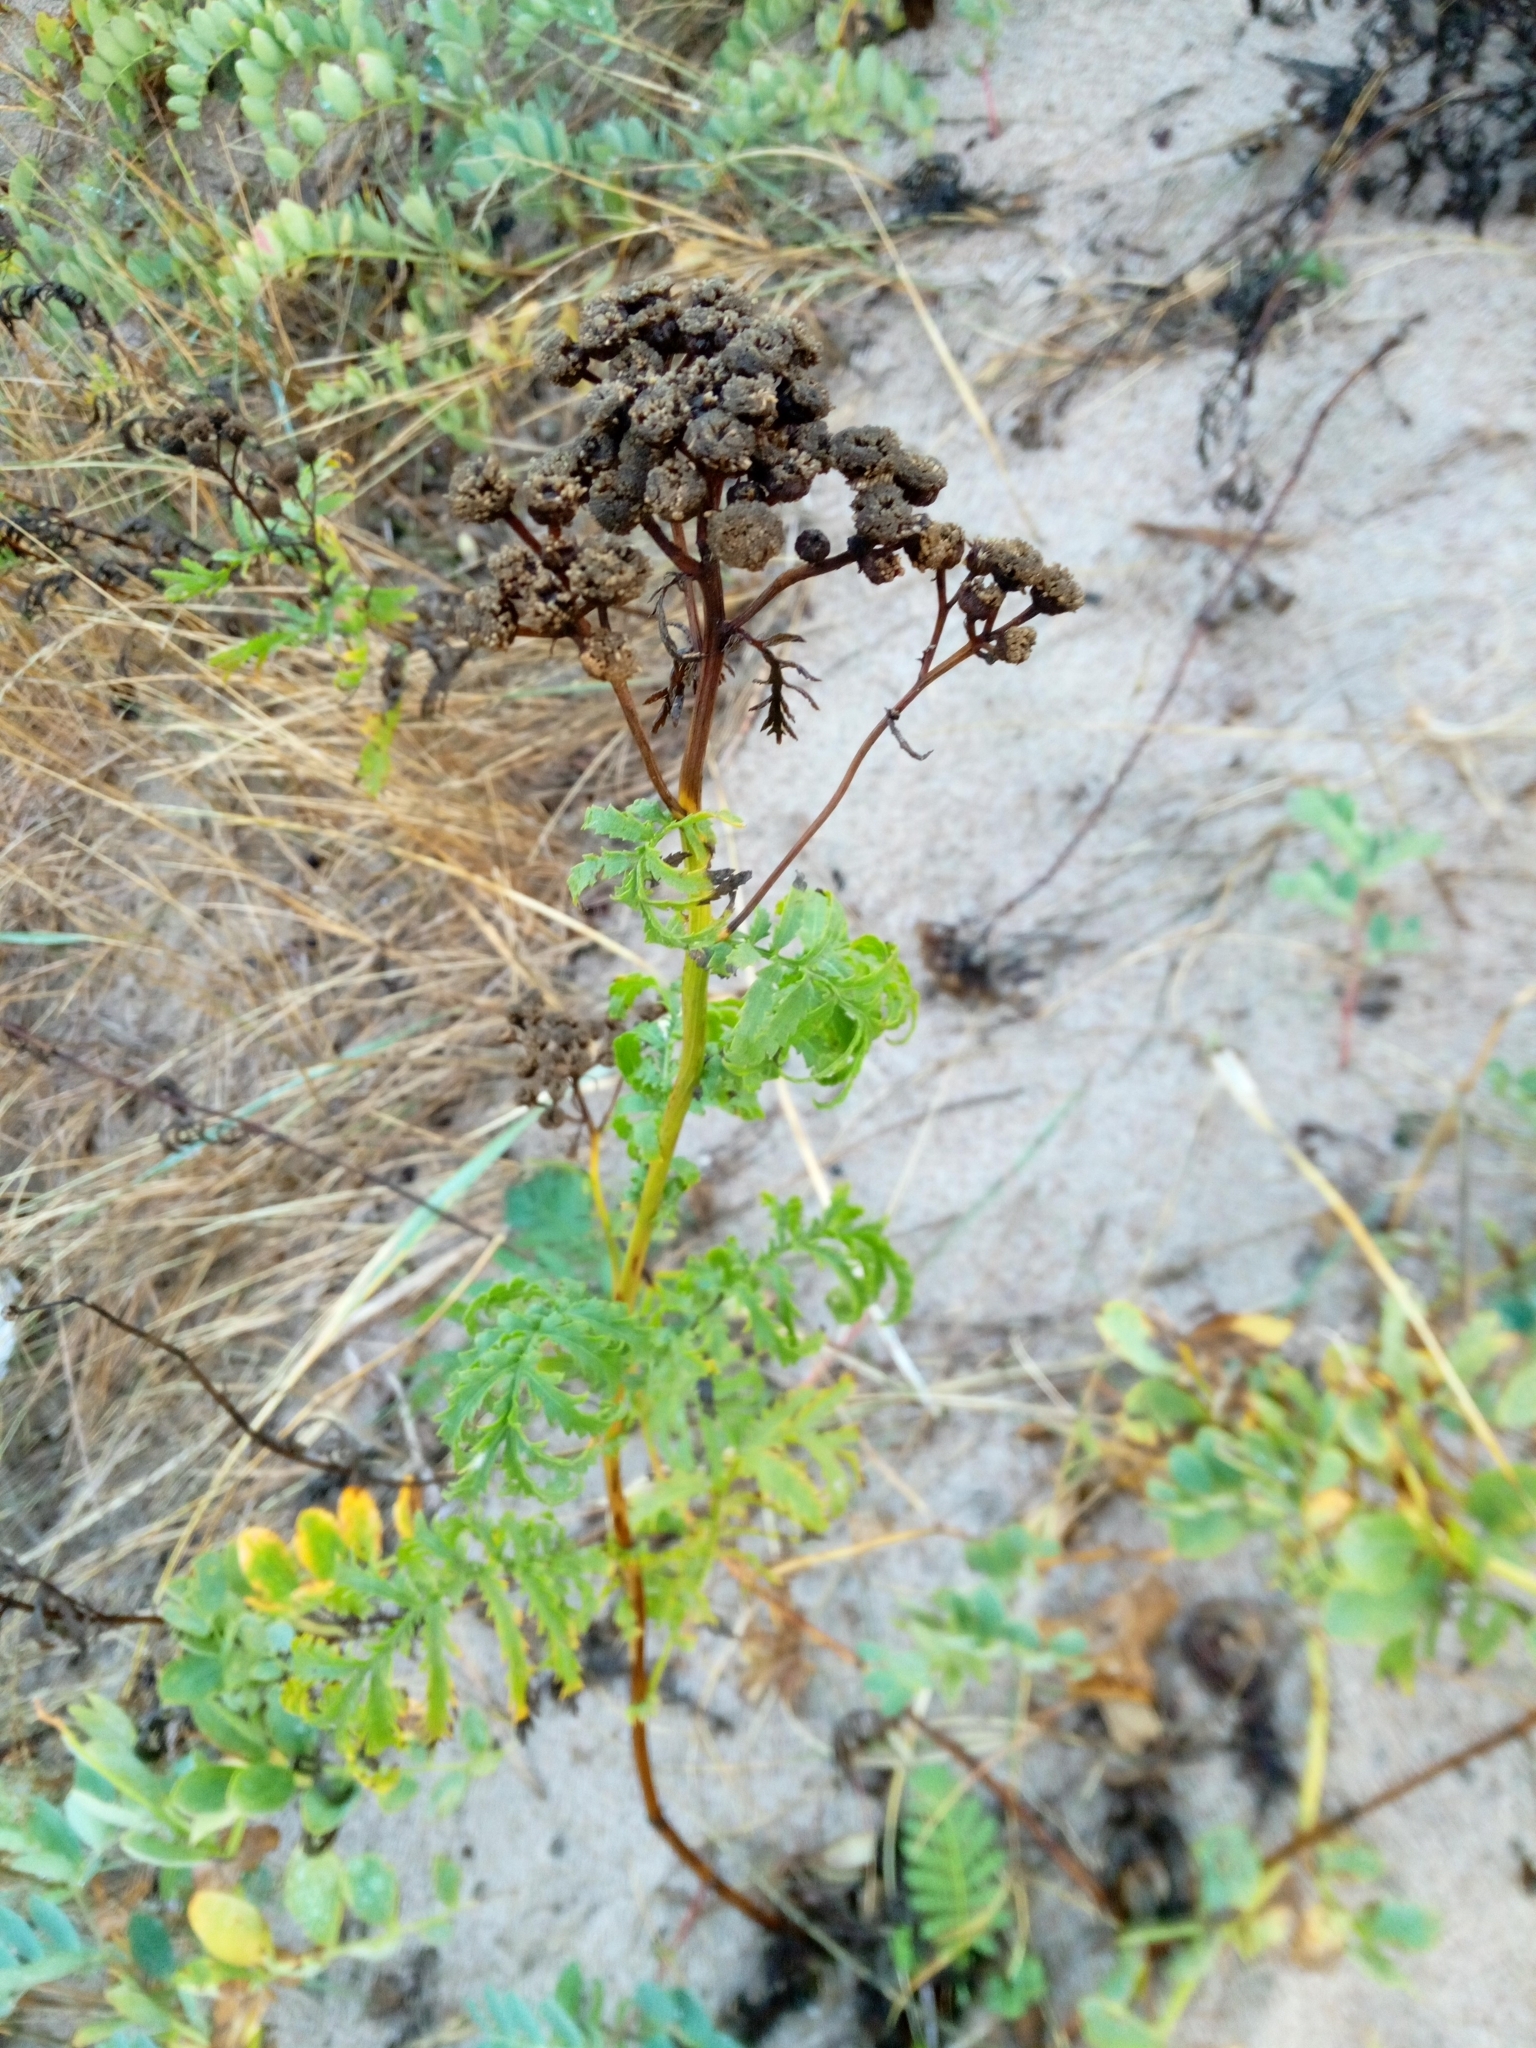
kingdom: Plantae
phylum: Tracheophyta
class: Magnoliopsida
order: Asterales
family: Asteraceae
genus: Tanacetum
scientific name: Tanacetum vulgare
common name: Common tansy
